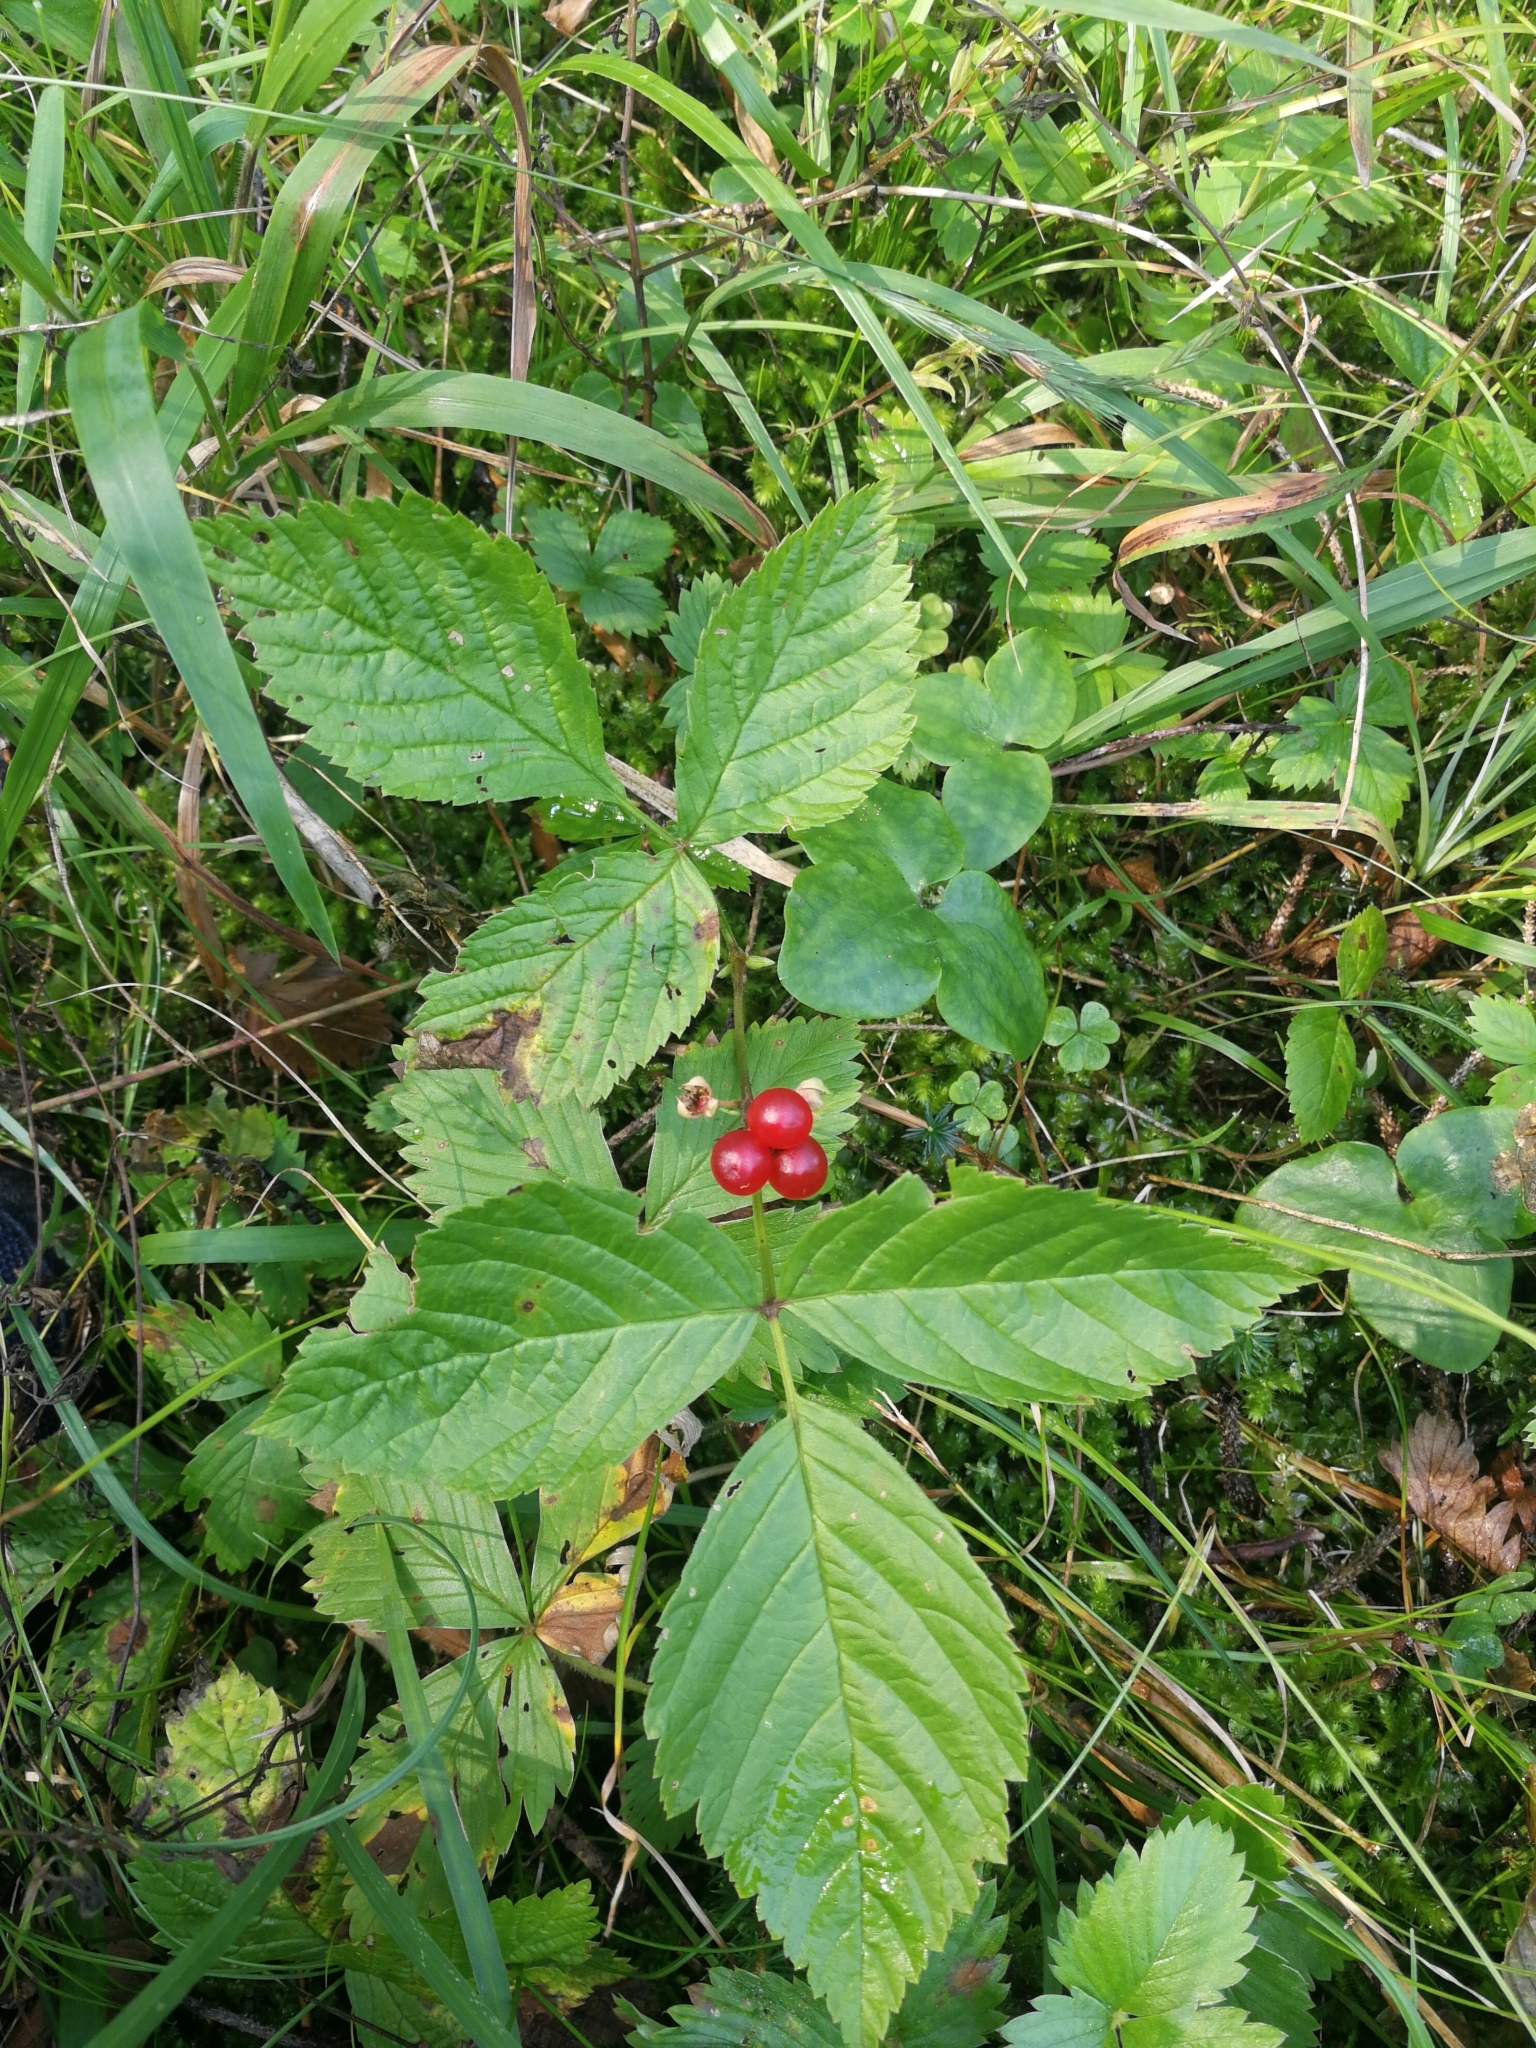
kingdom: Plantae
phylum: Tracheophyta
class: Magnoliopsida
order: Rosales
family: Rosaceae
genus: Rubus
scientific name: Rubus saxatilis
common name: Stone bramble
